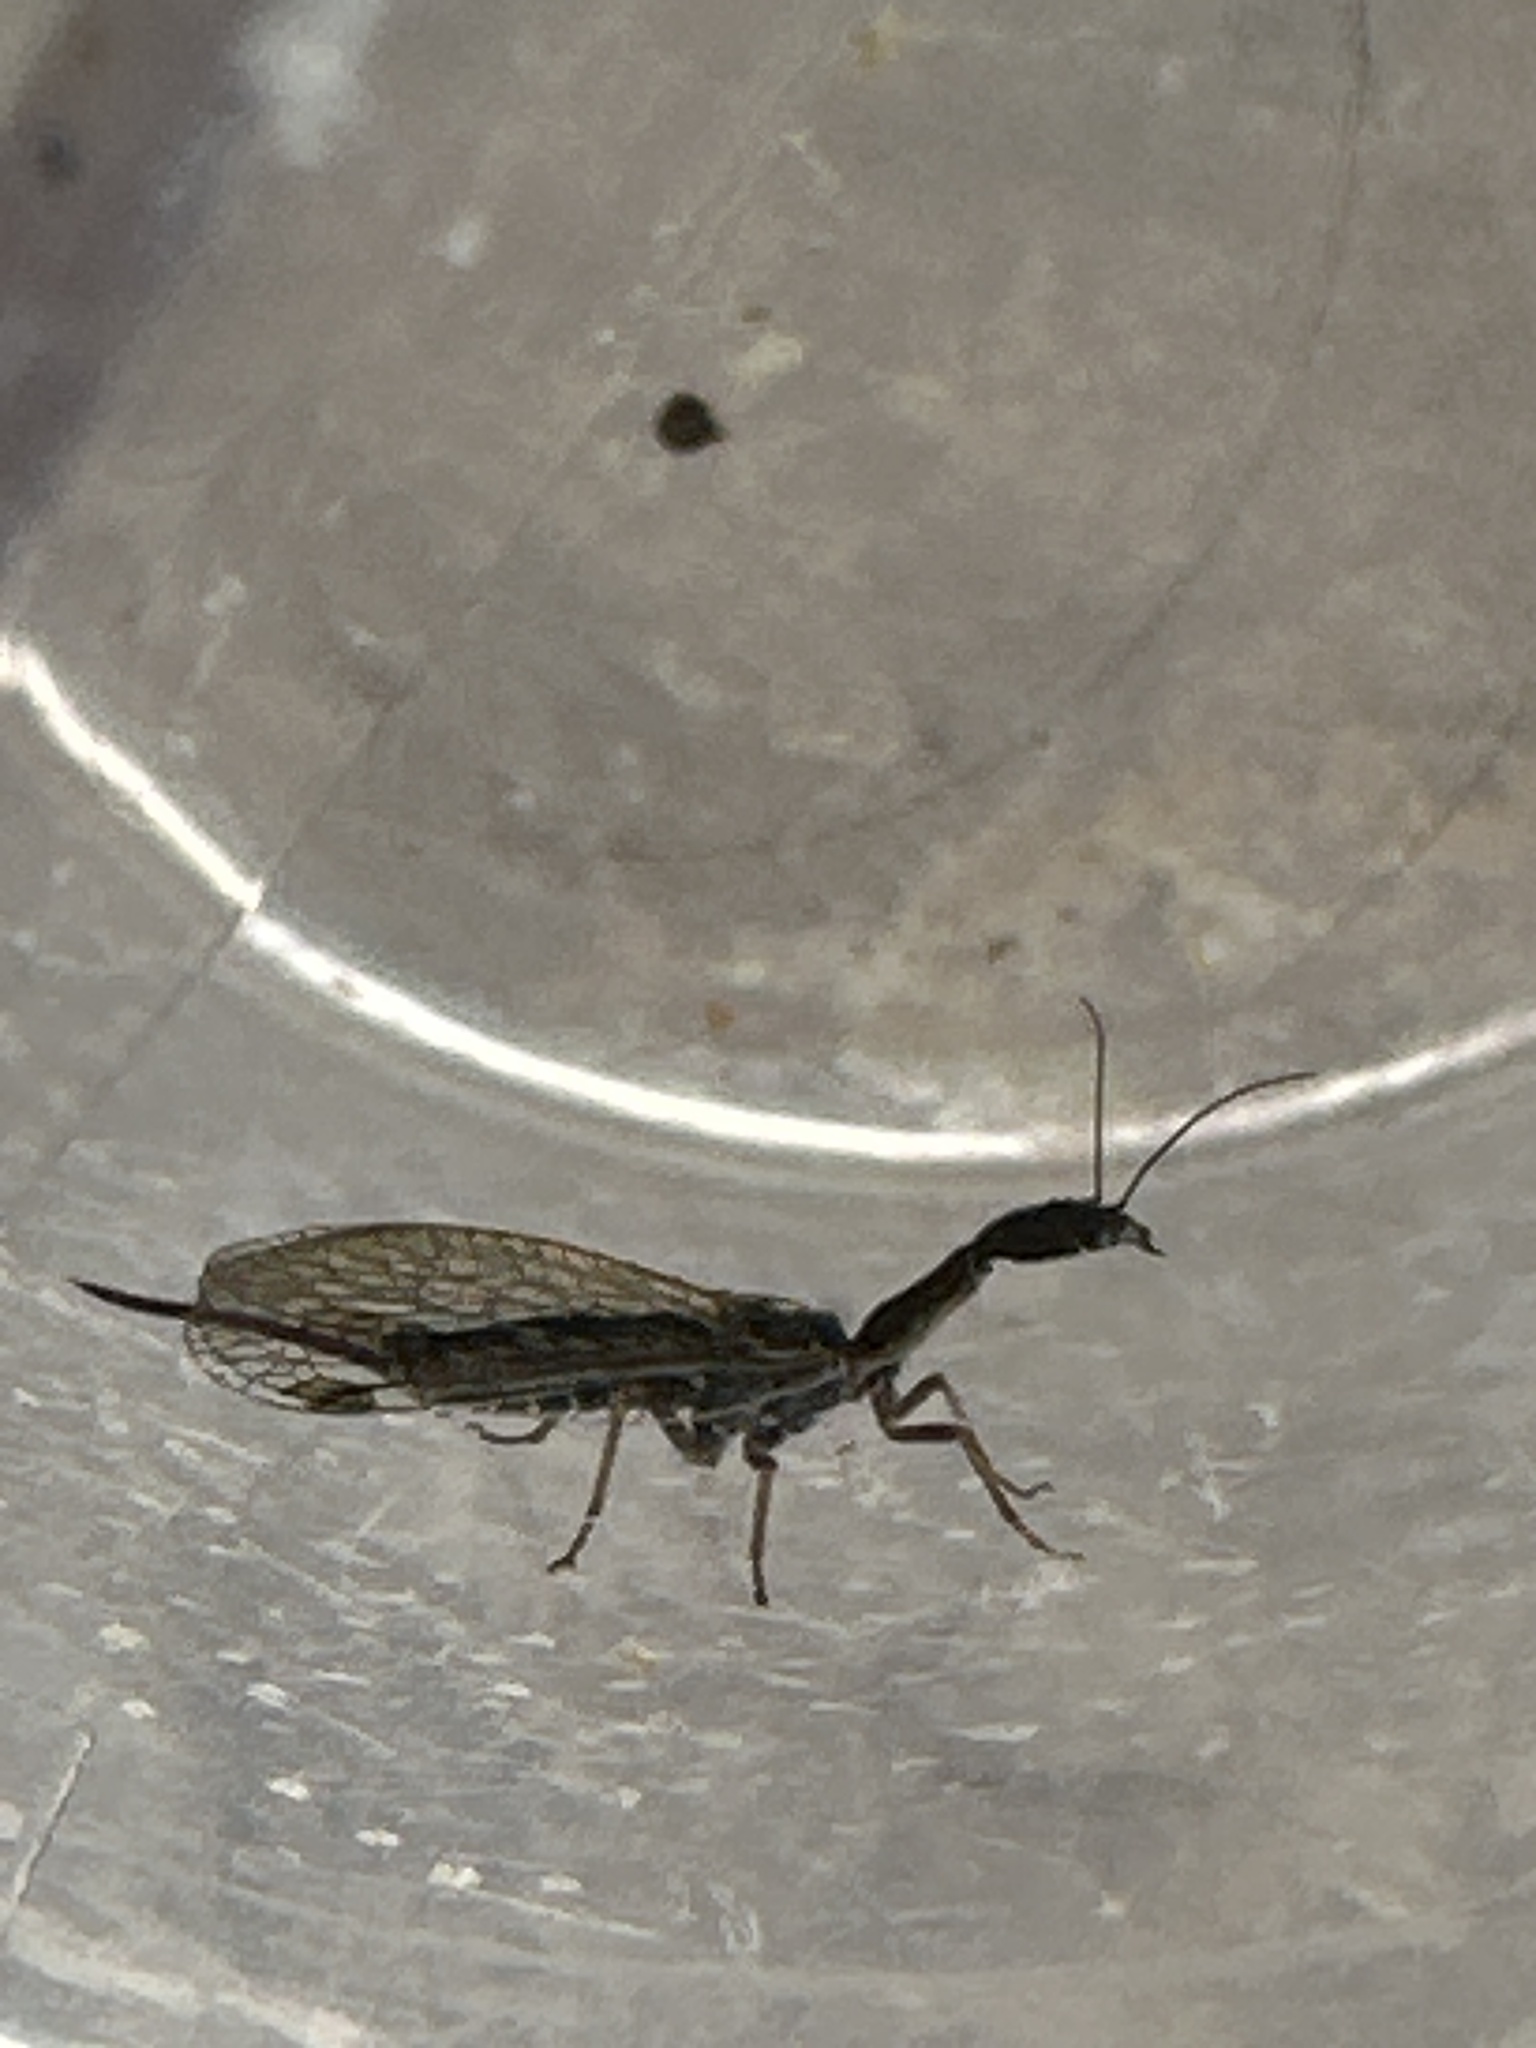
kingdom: Animalia
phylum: Arthropoda
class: Insecta
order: Raphidioptera
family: Raphidiidae
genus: Agulla
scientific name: Agulla bicolor
